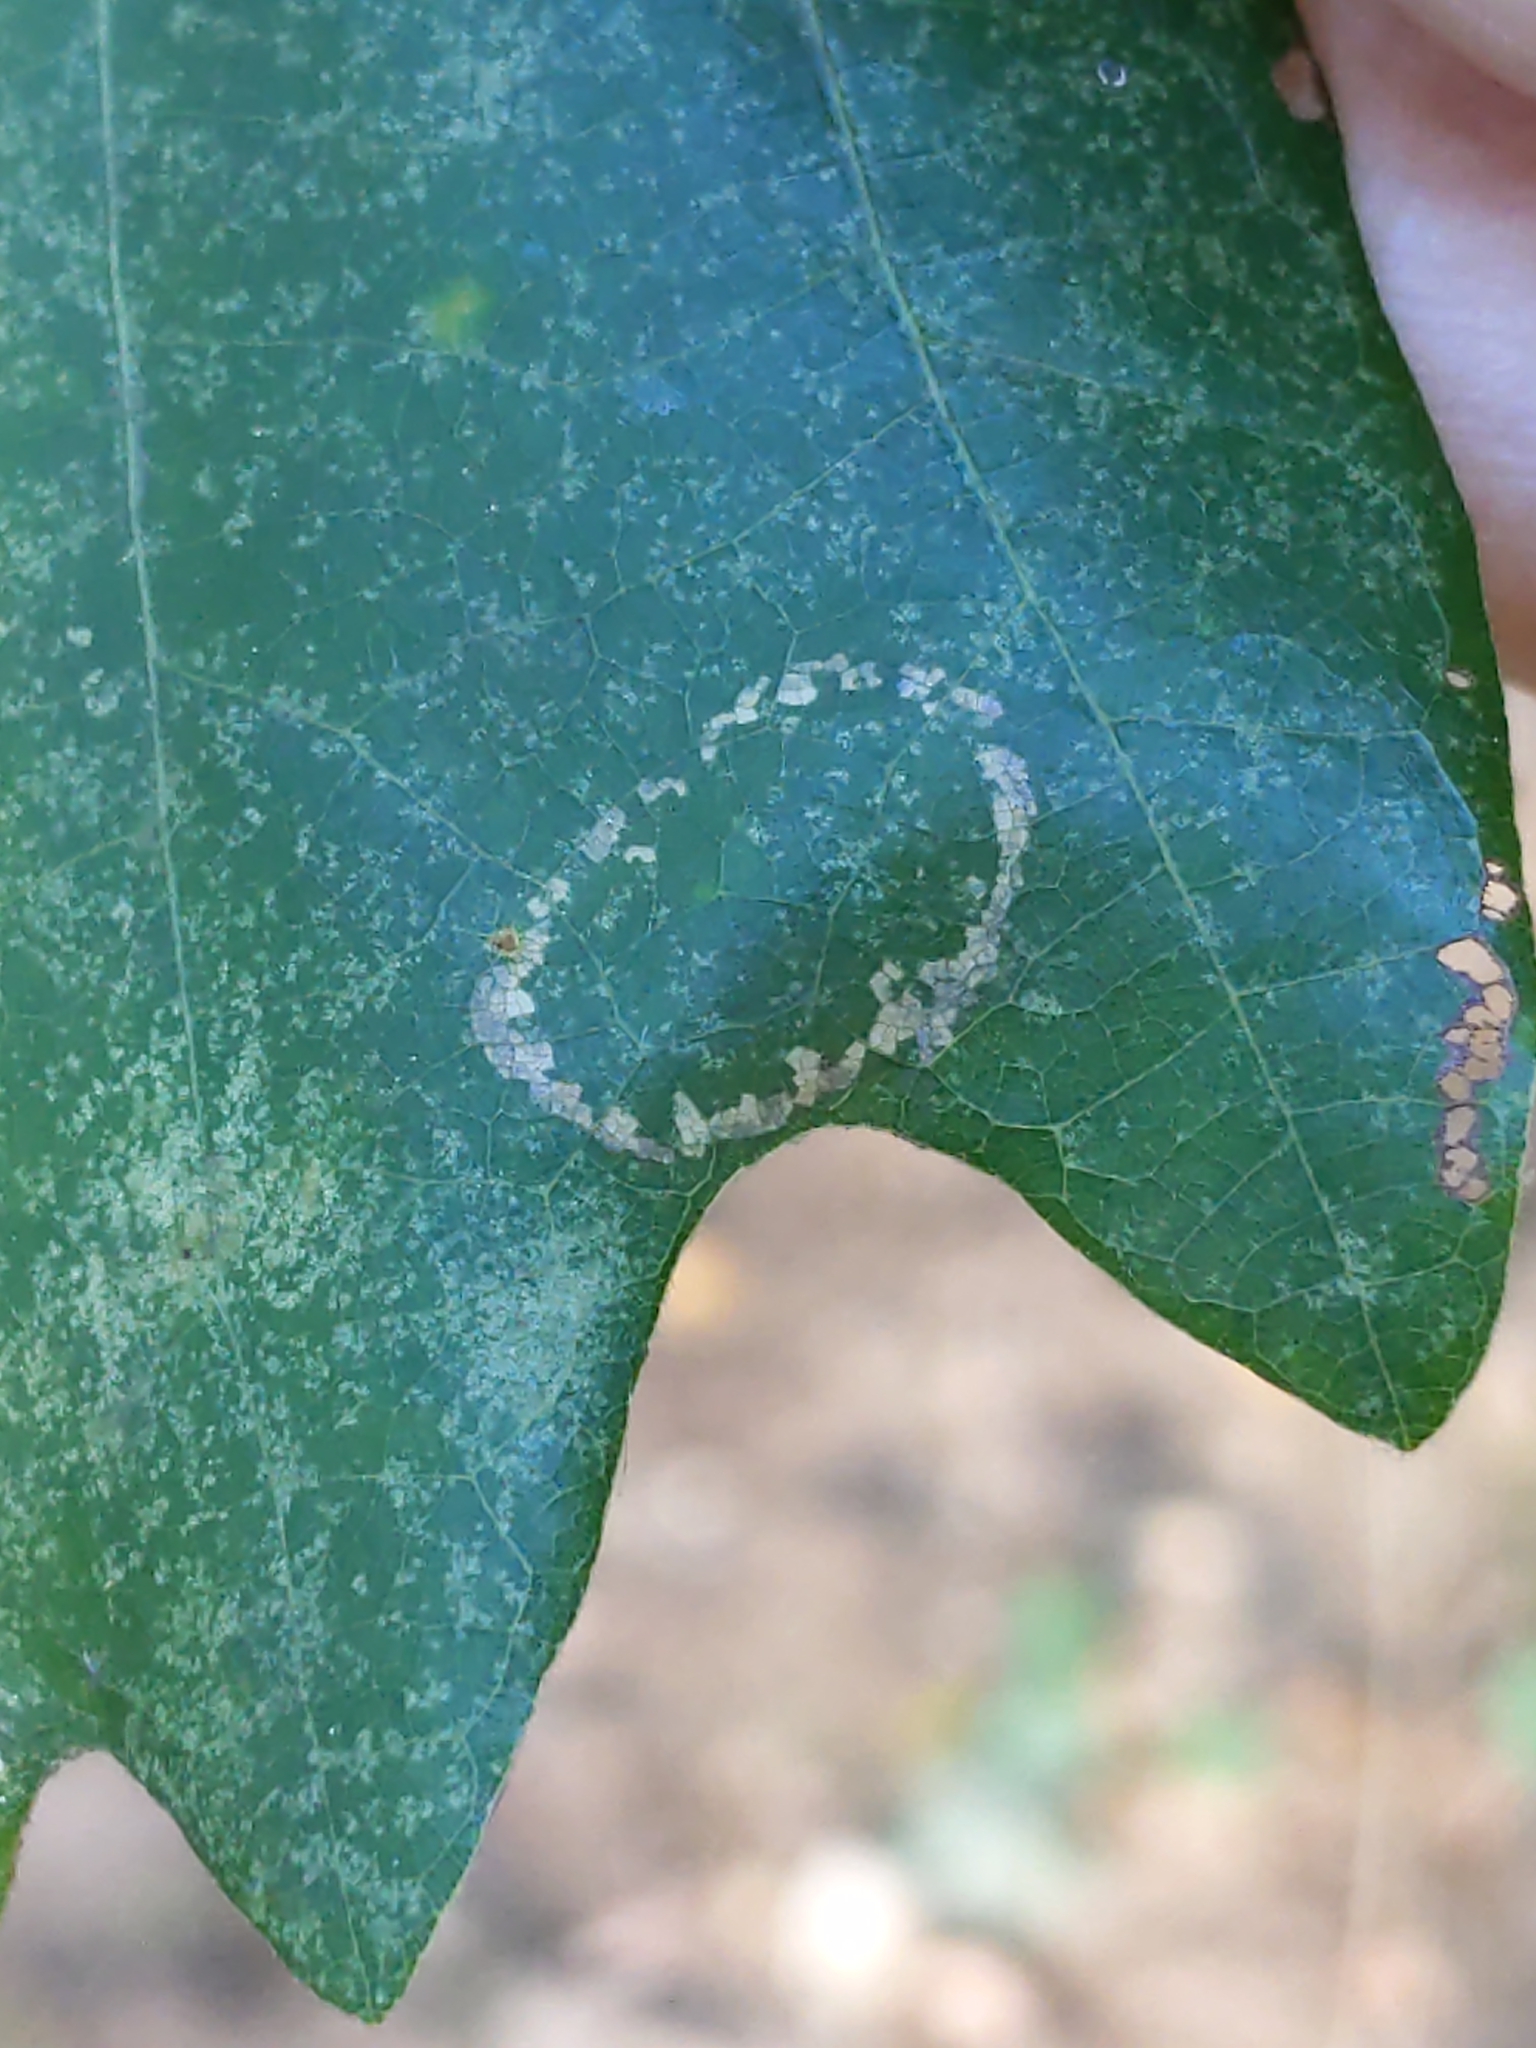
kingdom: Animalia
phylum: Arthropoda
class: Insecta
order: Lepidoptera
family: Gracillariidae
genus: Phyllonorycter
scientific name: Phyllonorycter
